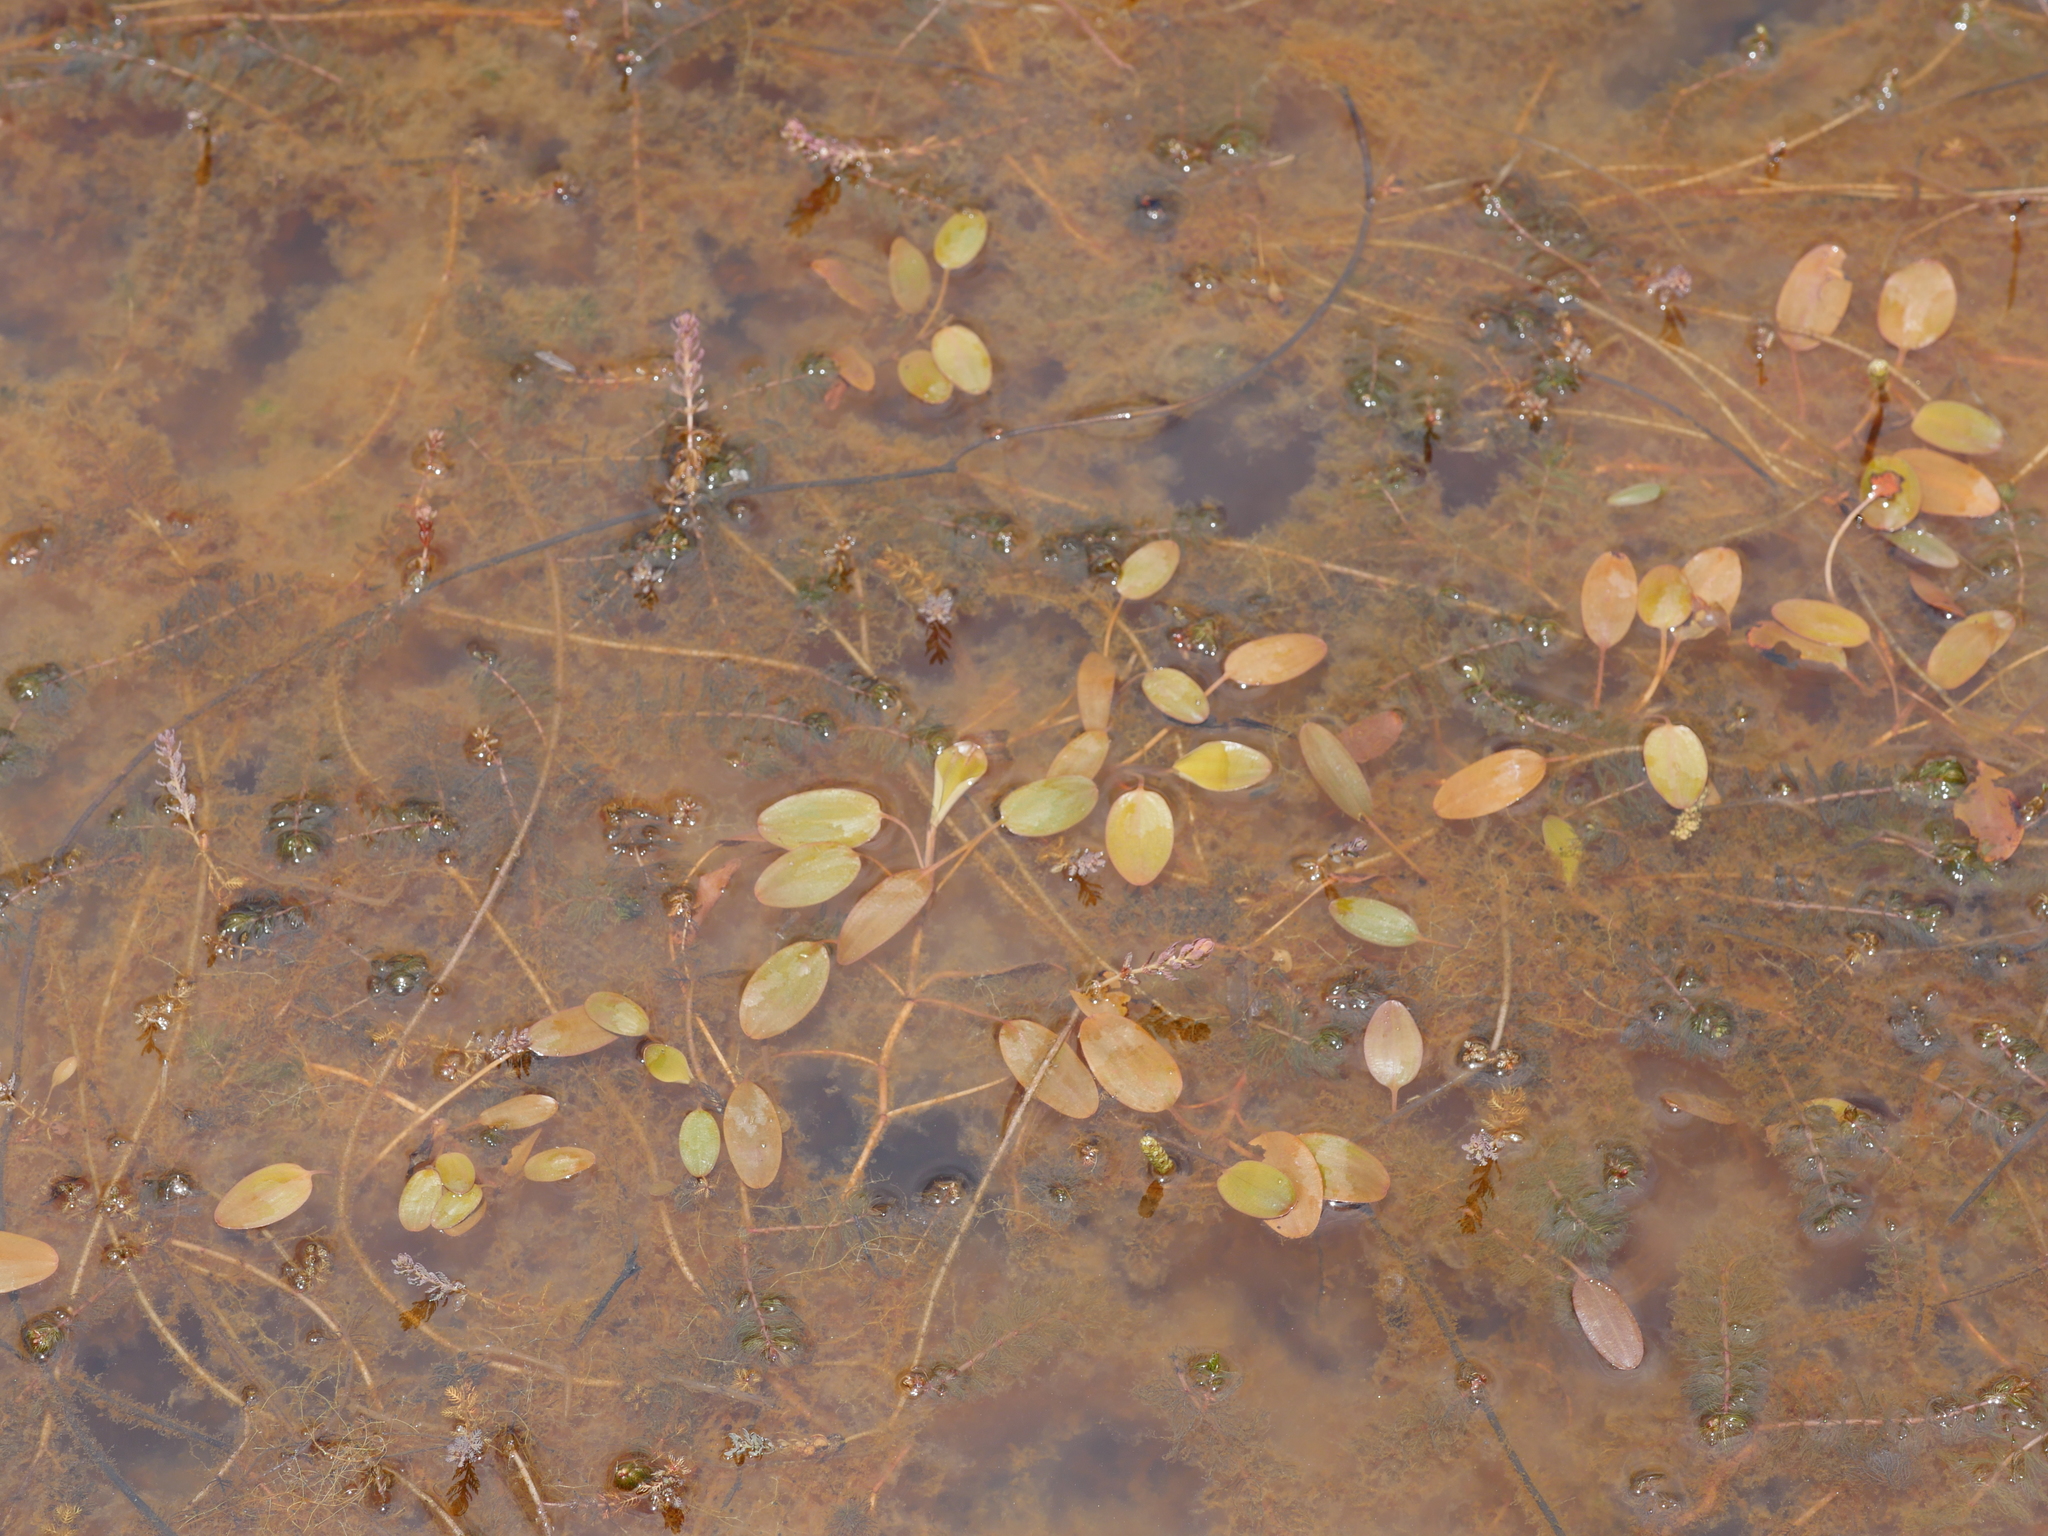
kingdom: Plantae
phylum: Tracheophyta
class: Liliopsida
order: Alismatales
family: Potamogetonaceae
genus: Potamogeton
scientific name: Potamogeton cheesemanii
